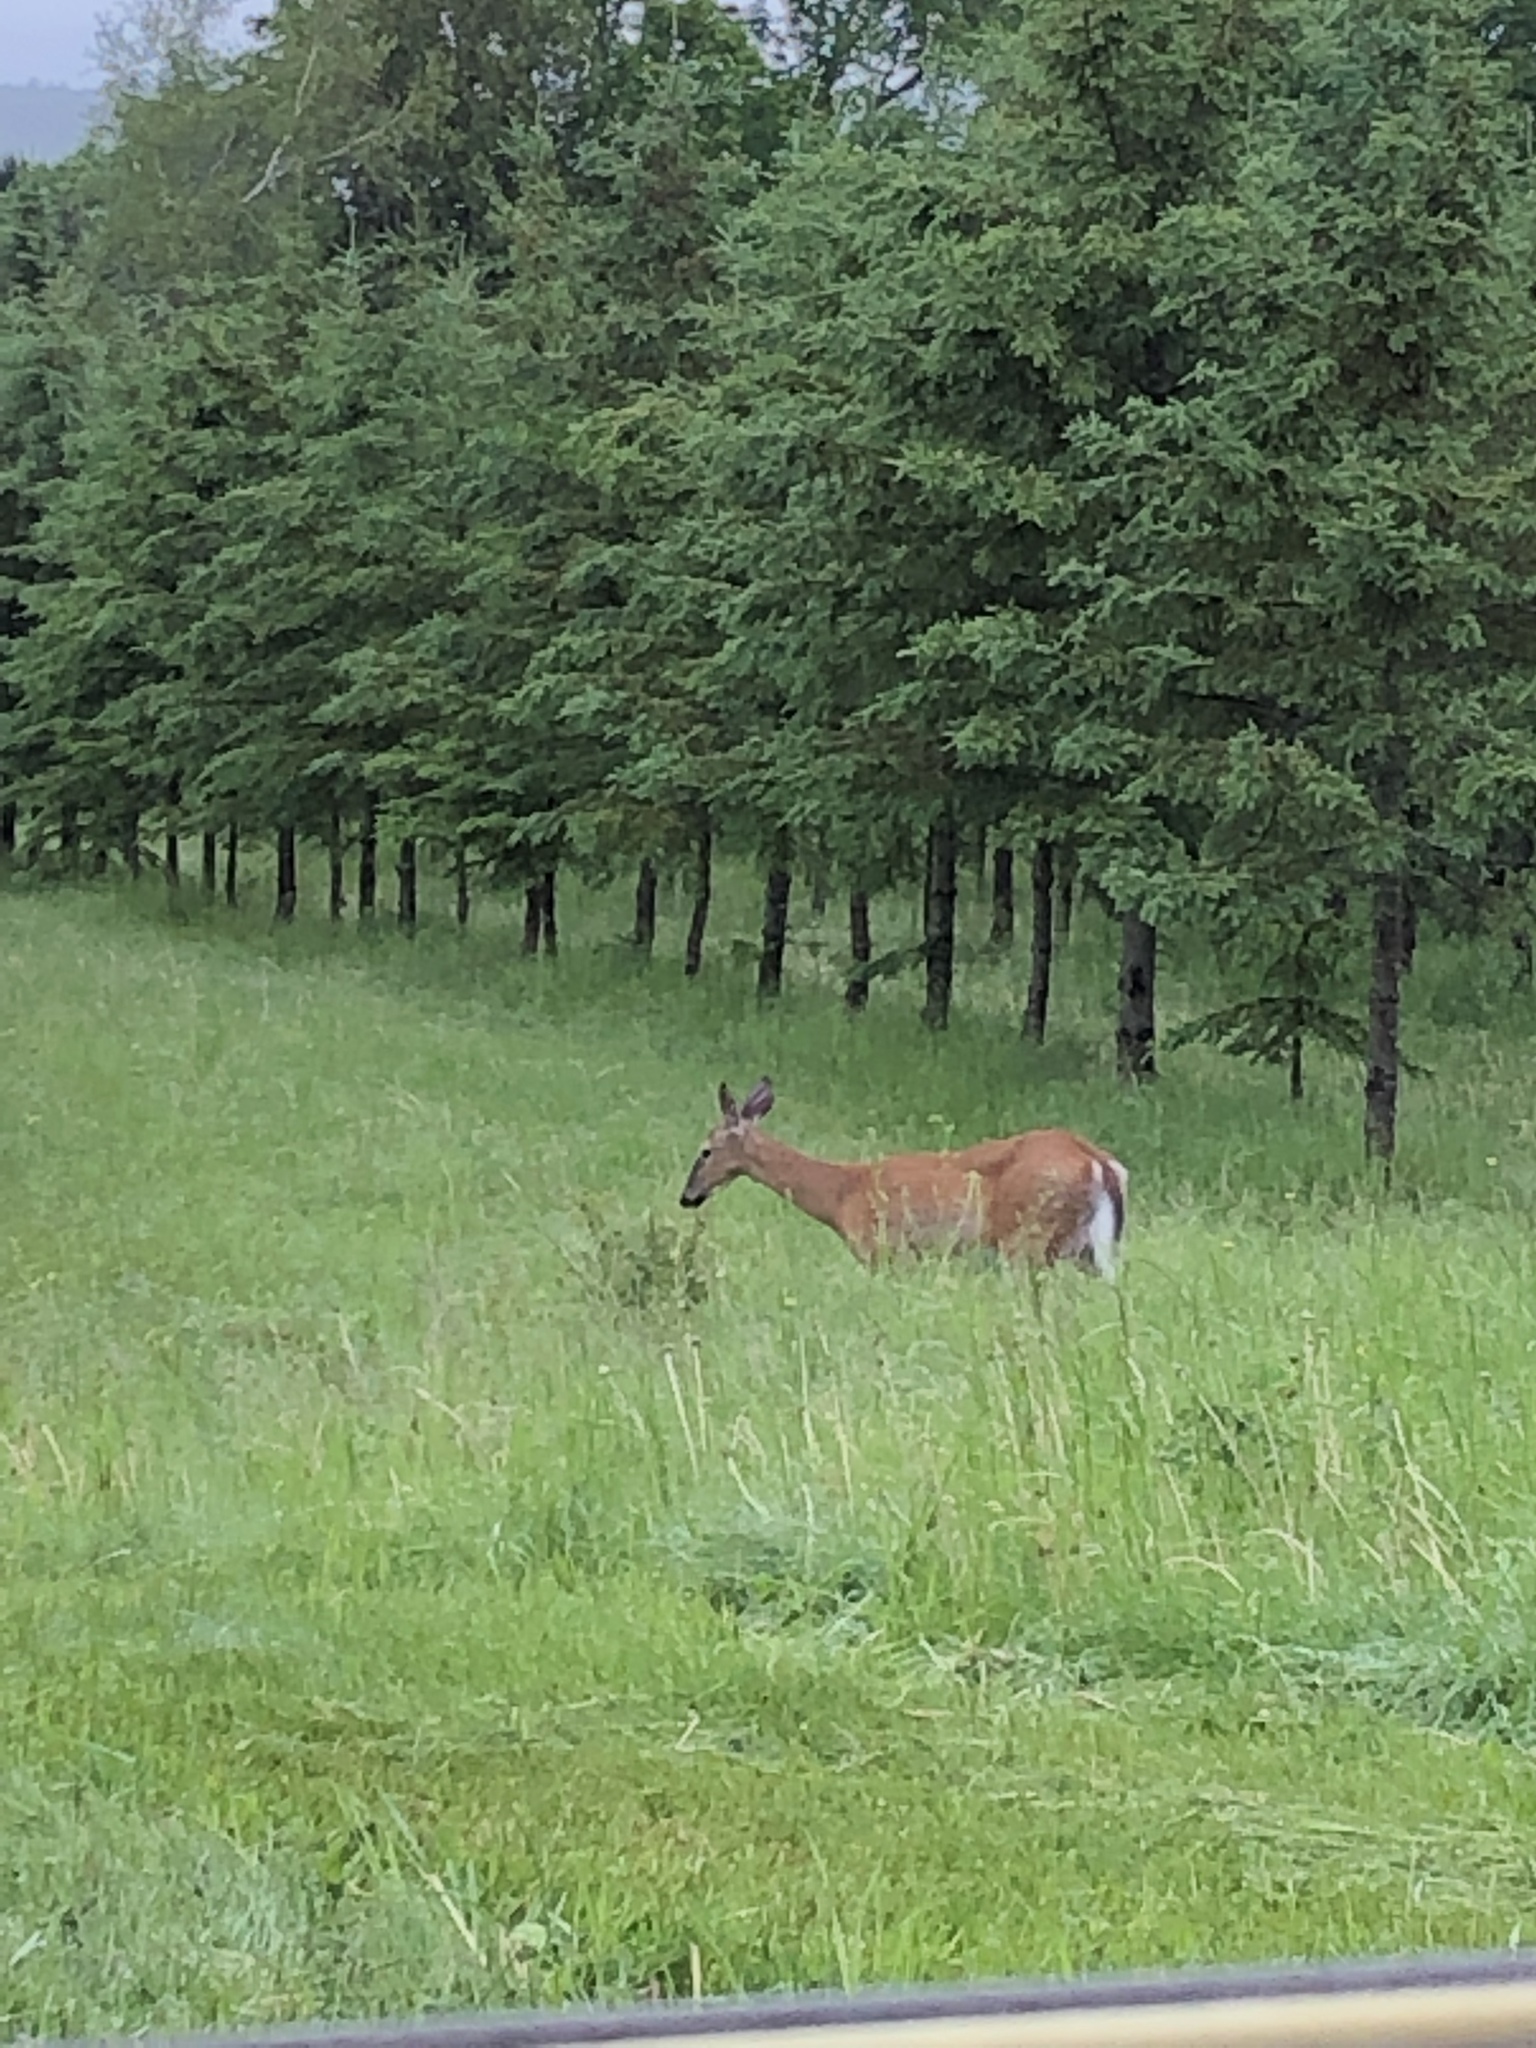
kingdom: Animalia
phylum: Chordata
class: Mammalia
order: Artiodactyla
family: Cervidae
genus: Odocoileus
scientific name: Odocoileus virginianus
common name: White-tailed deer
